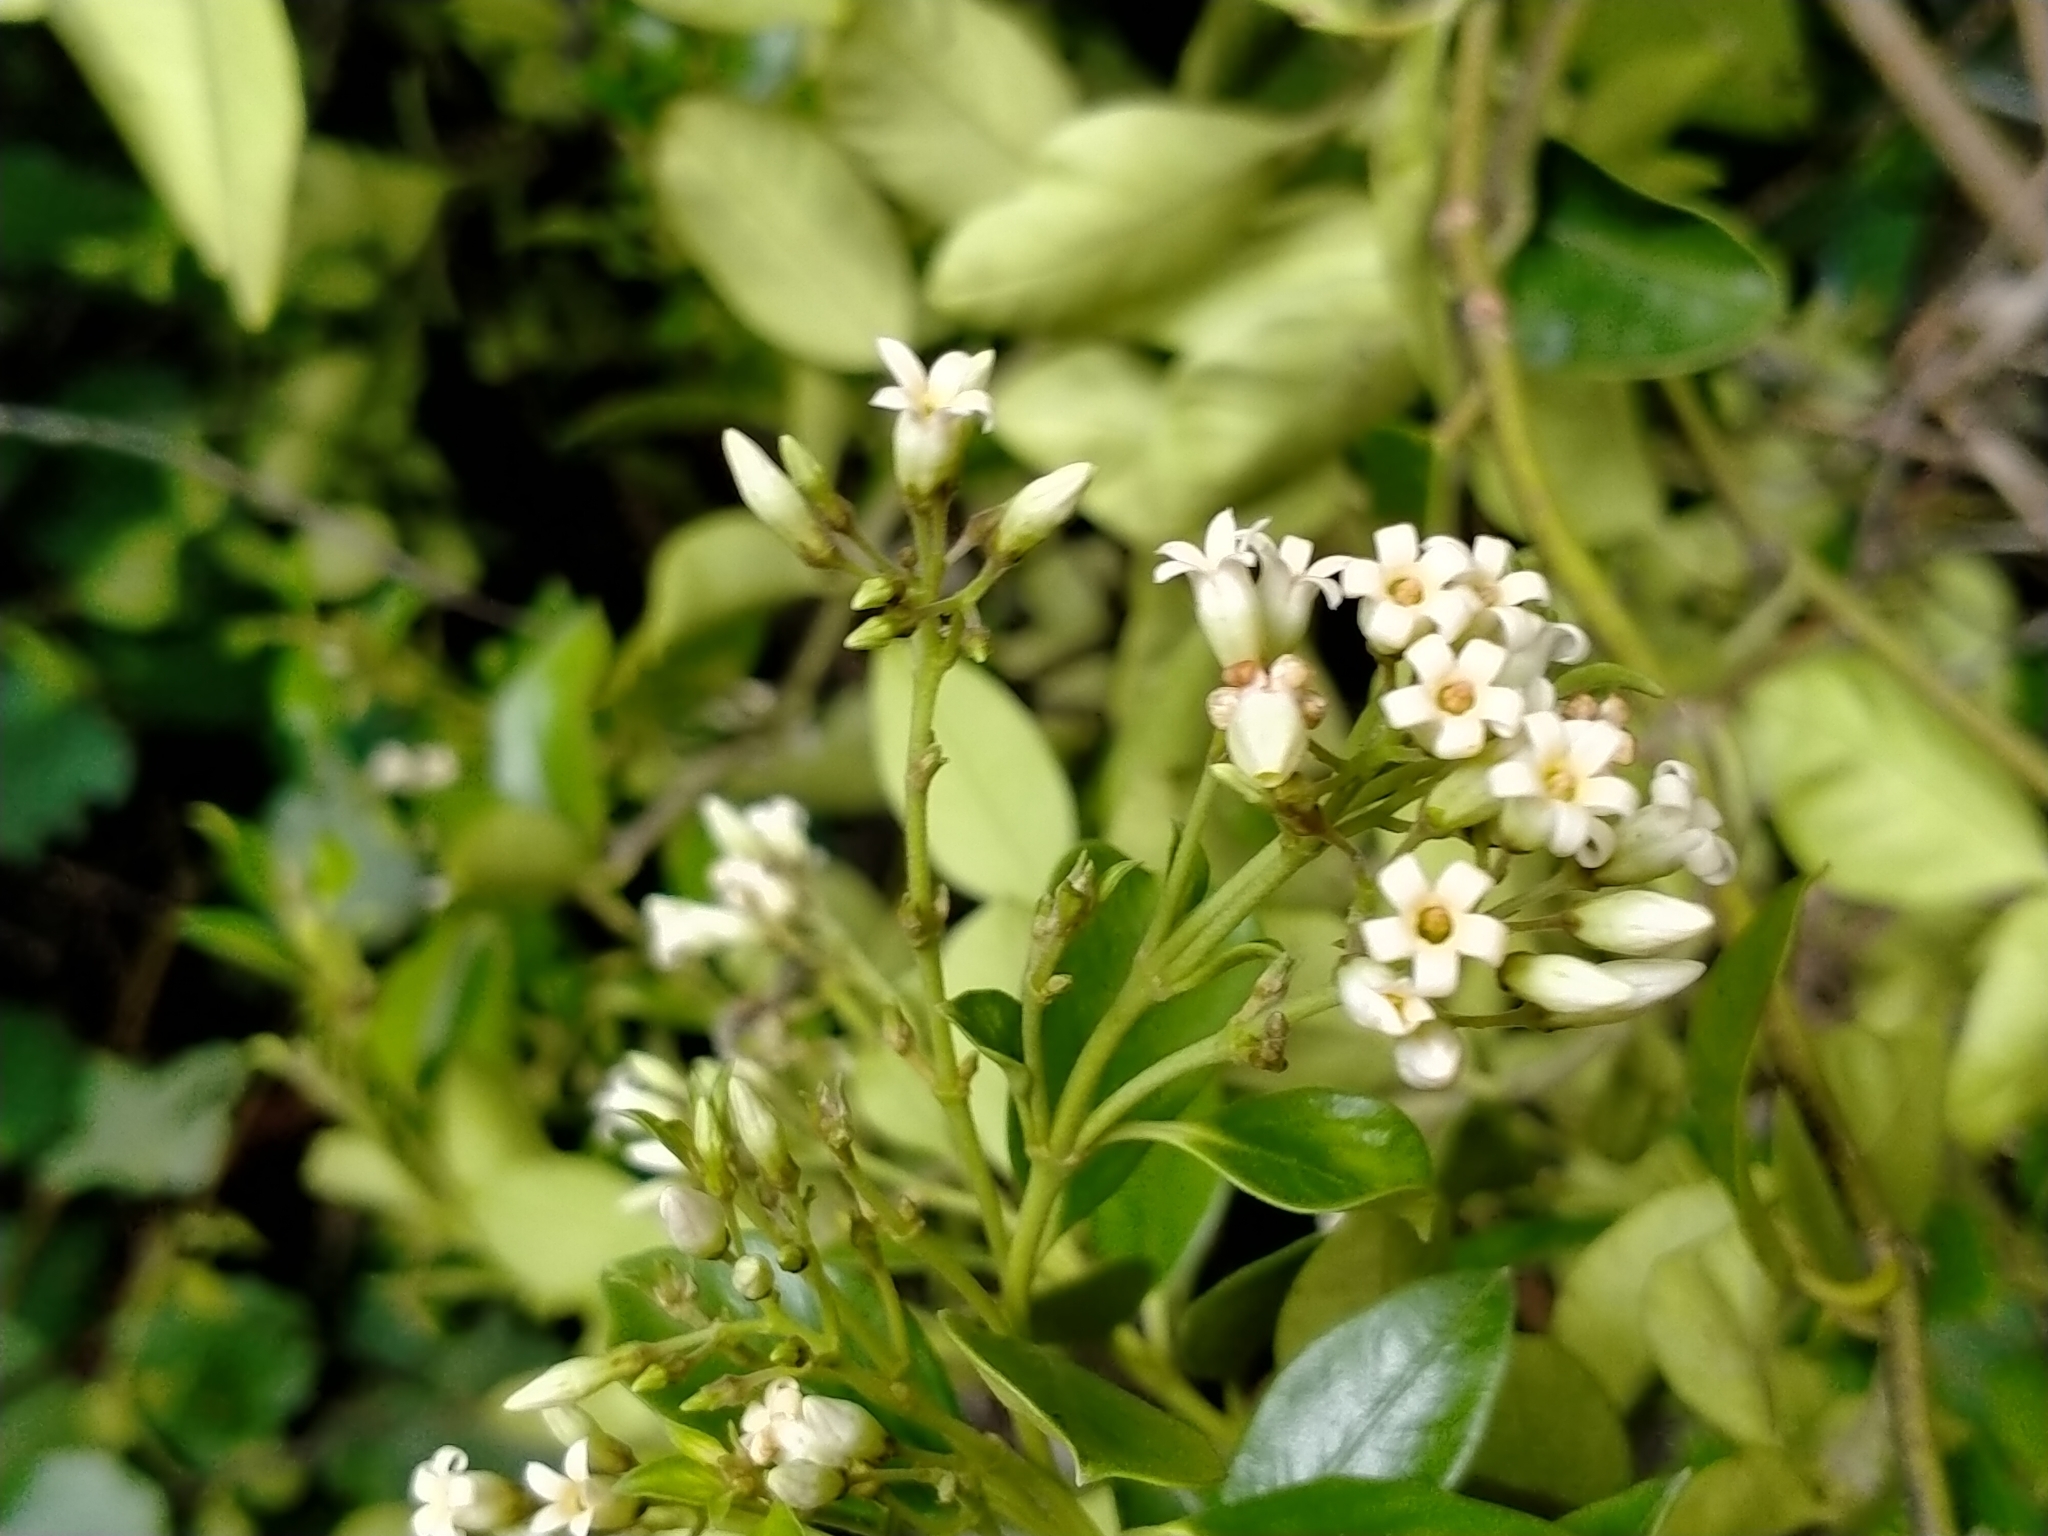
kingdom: Plantae
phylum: Tracheophyta
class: Magnoliopsida
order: Gentianales
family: Apocynaceae
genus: Parsonsia
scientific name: Parsonsia heterophylla
